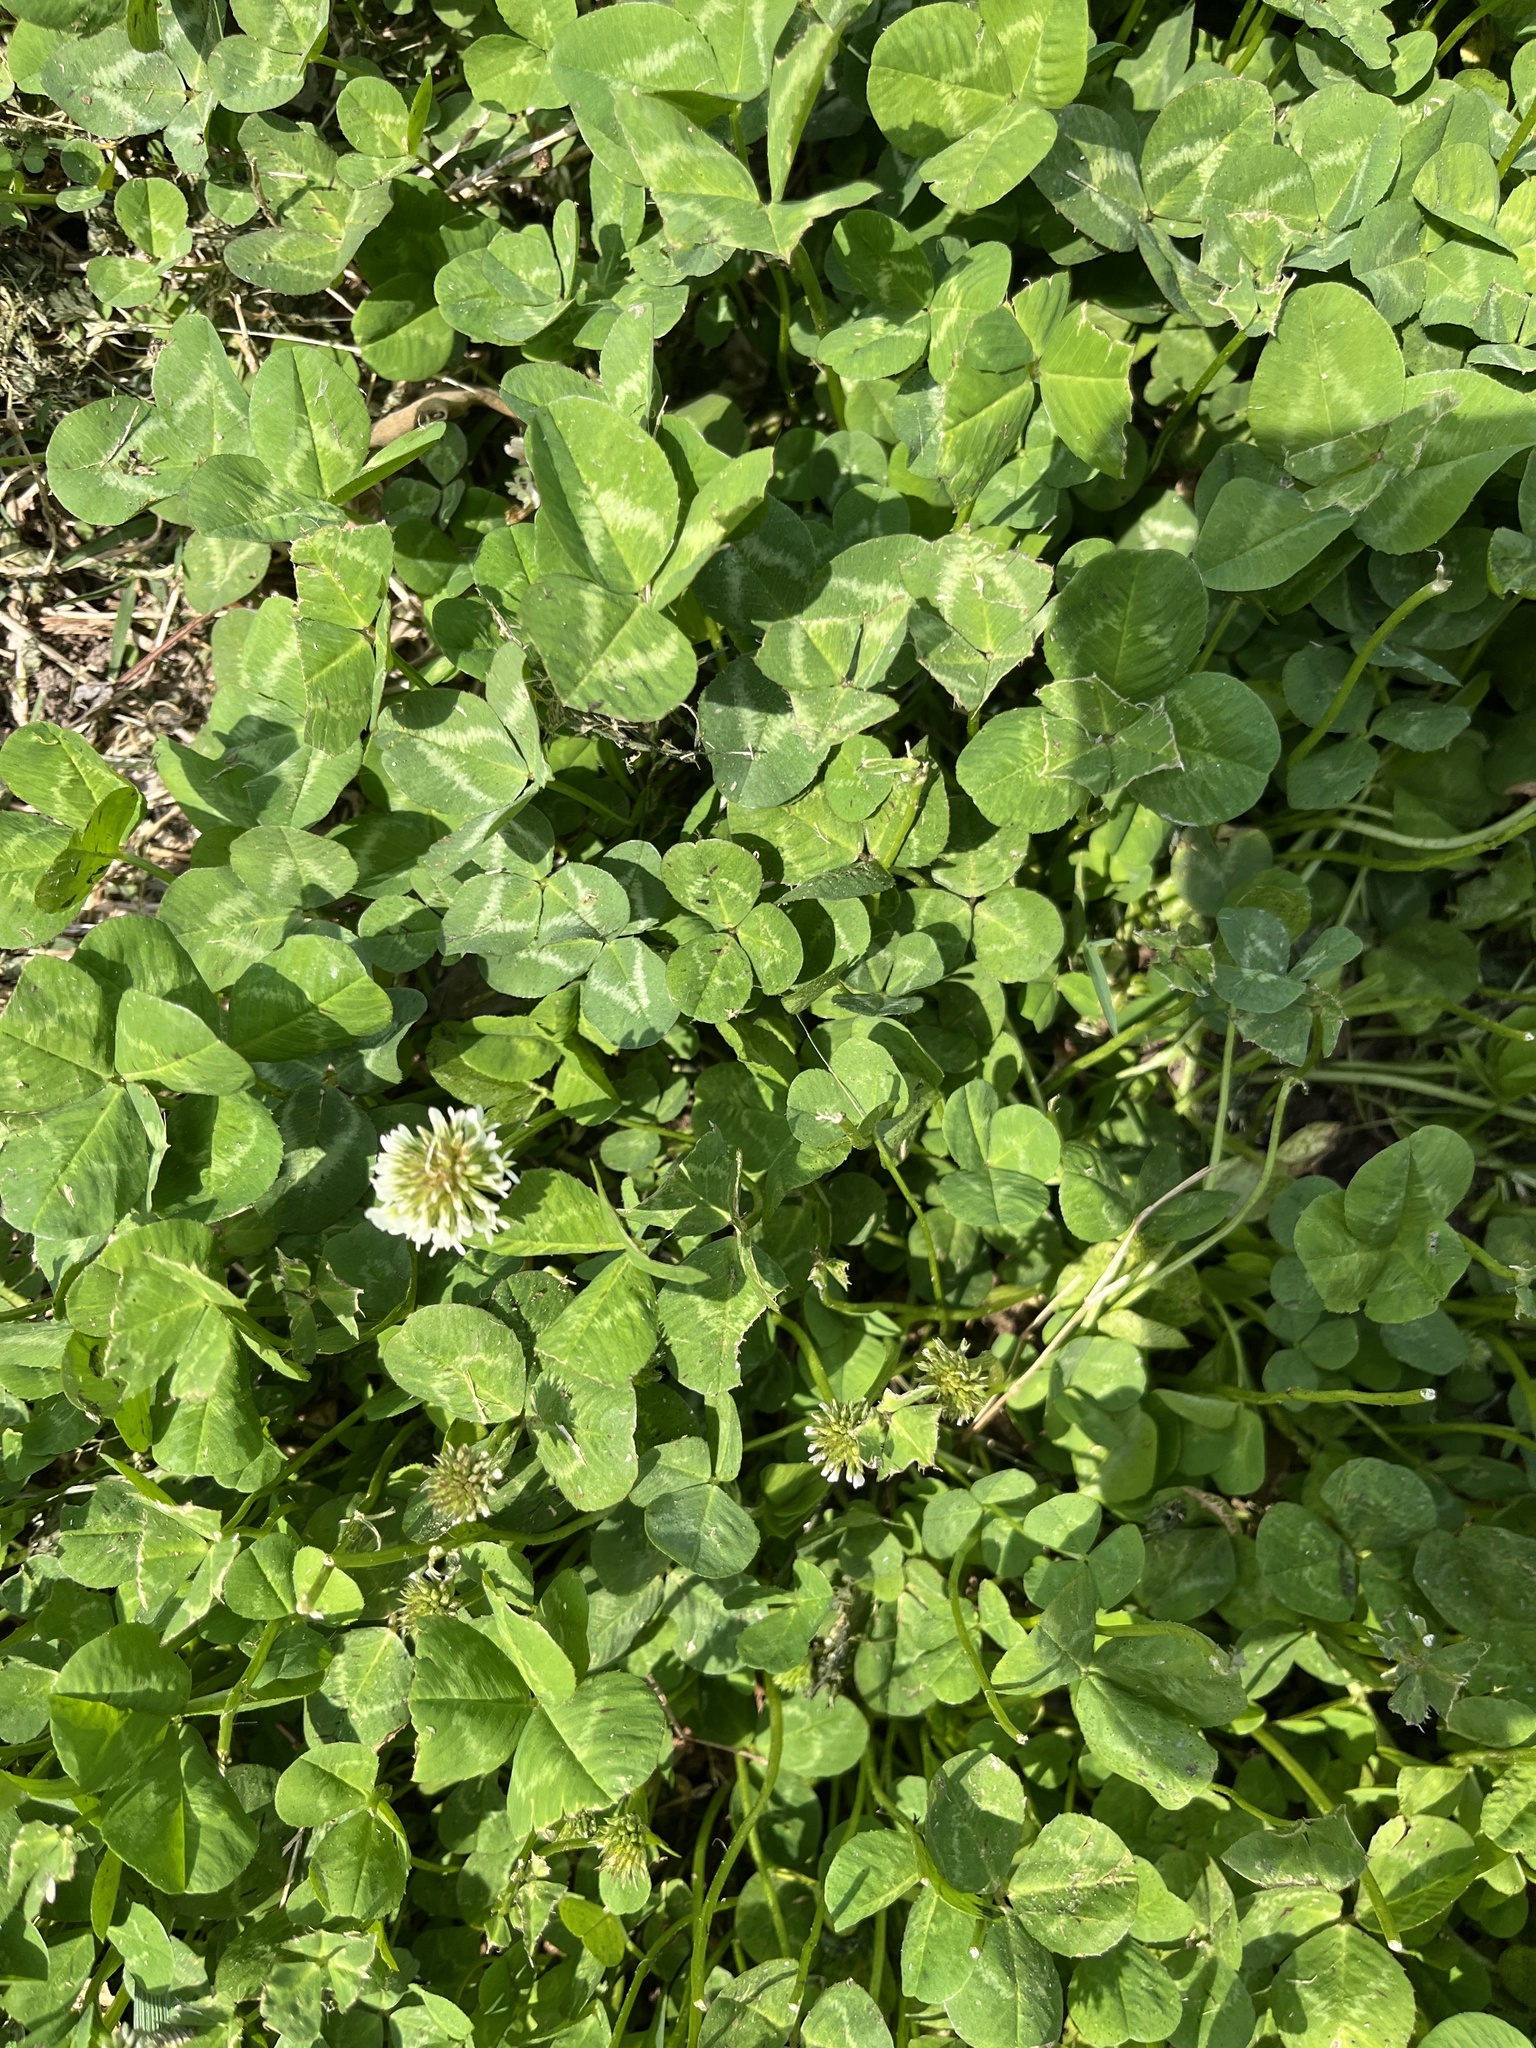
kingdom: Plantae
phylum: Tracheophyta
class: Magnoliopsida
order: Fabales
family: Fabaceae
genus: Trifolium
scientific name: Trifolium repens
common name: White clover
